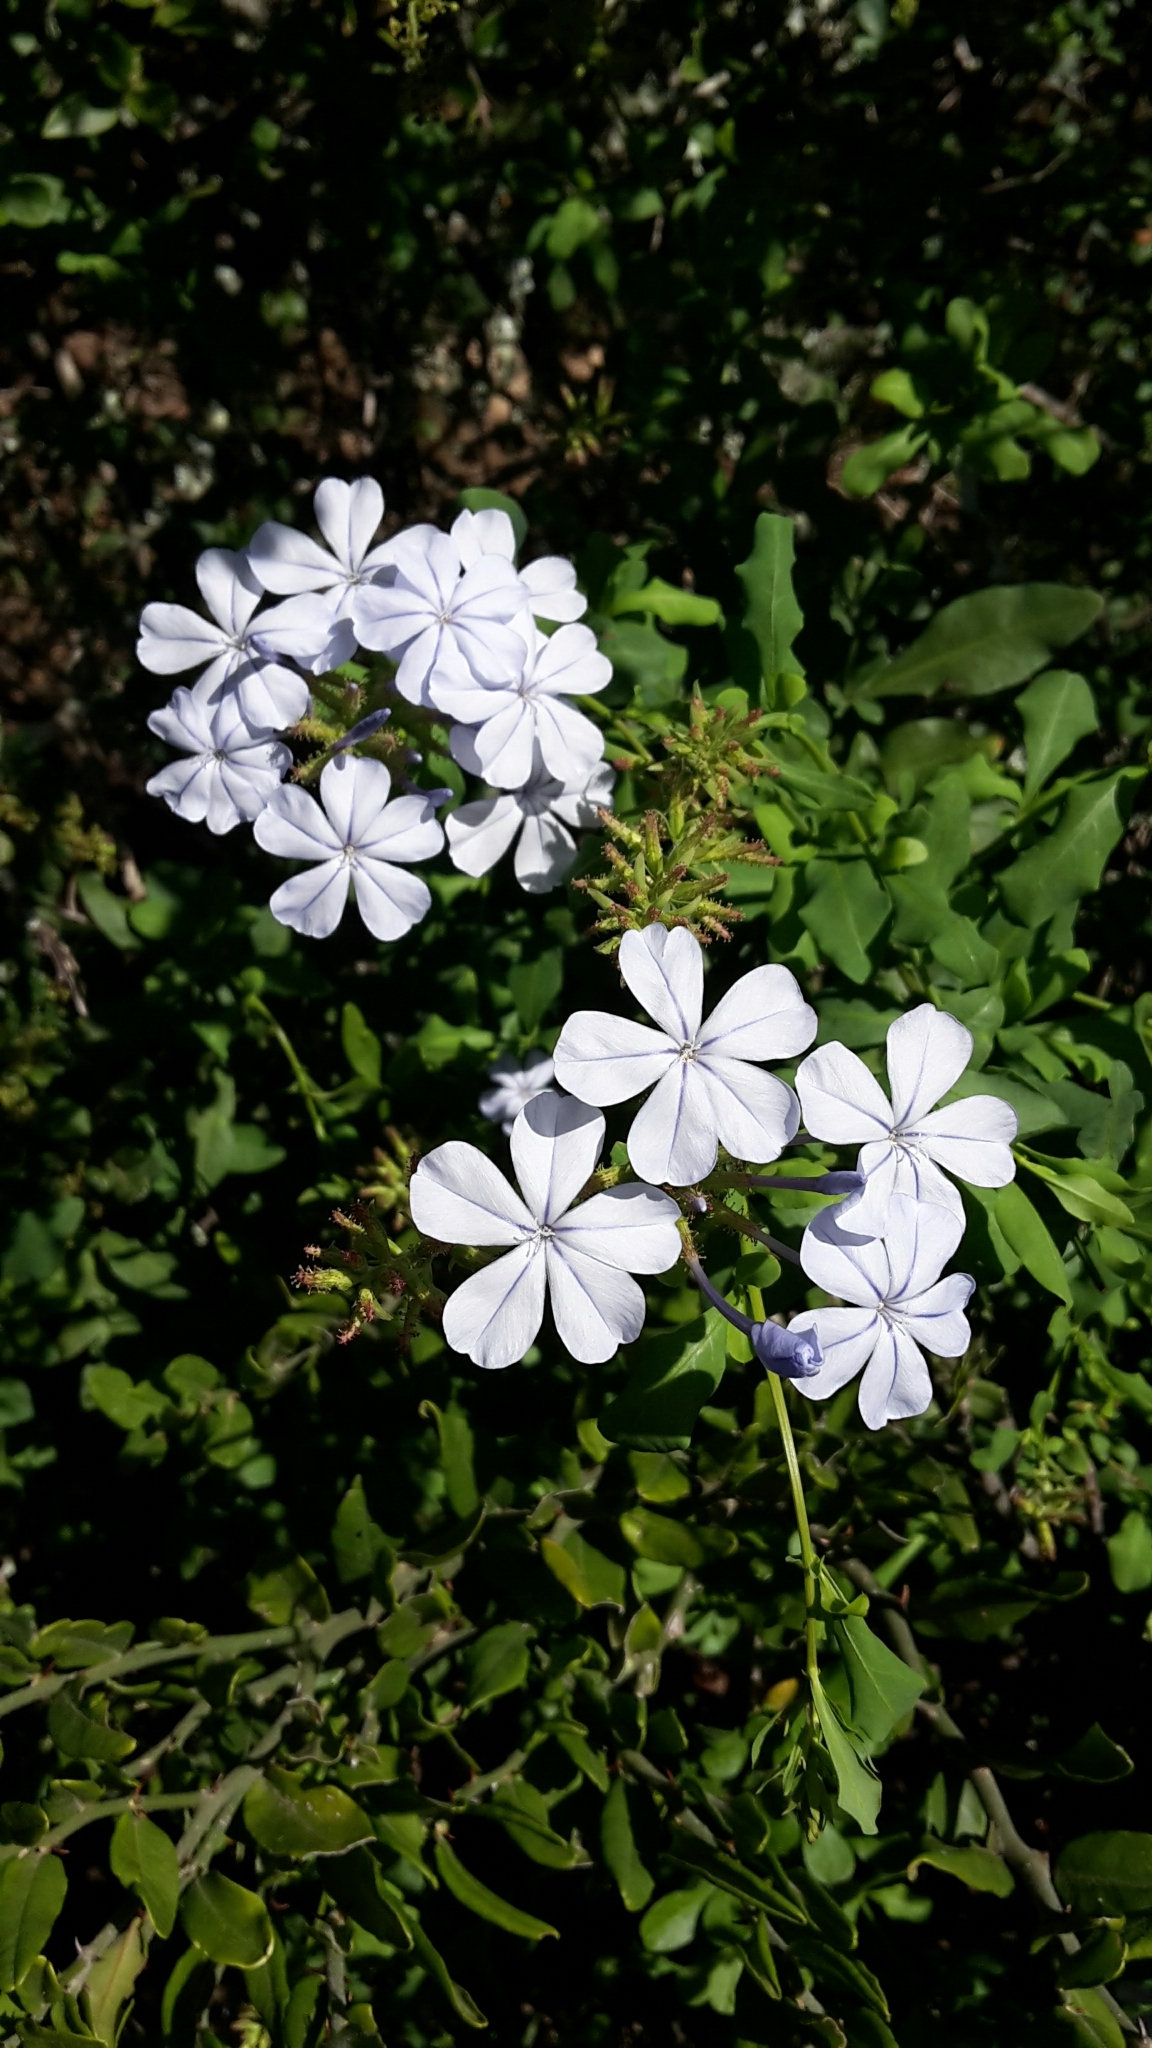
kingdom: Plantae
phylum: Tracheophyta
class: Magnoliopsida
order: Caryophyllales
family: Plumbaginaceae
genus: Plumbago
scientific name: Plumbago auriculata
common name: Cape leadwort
